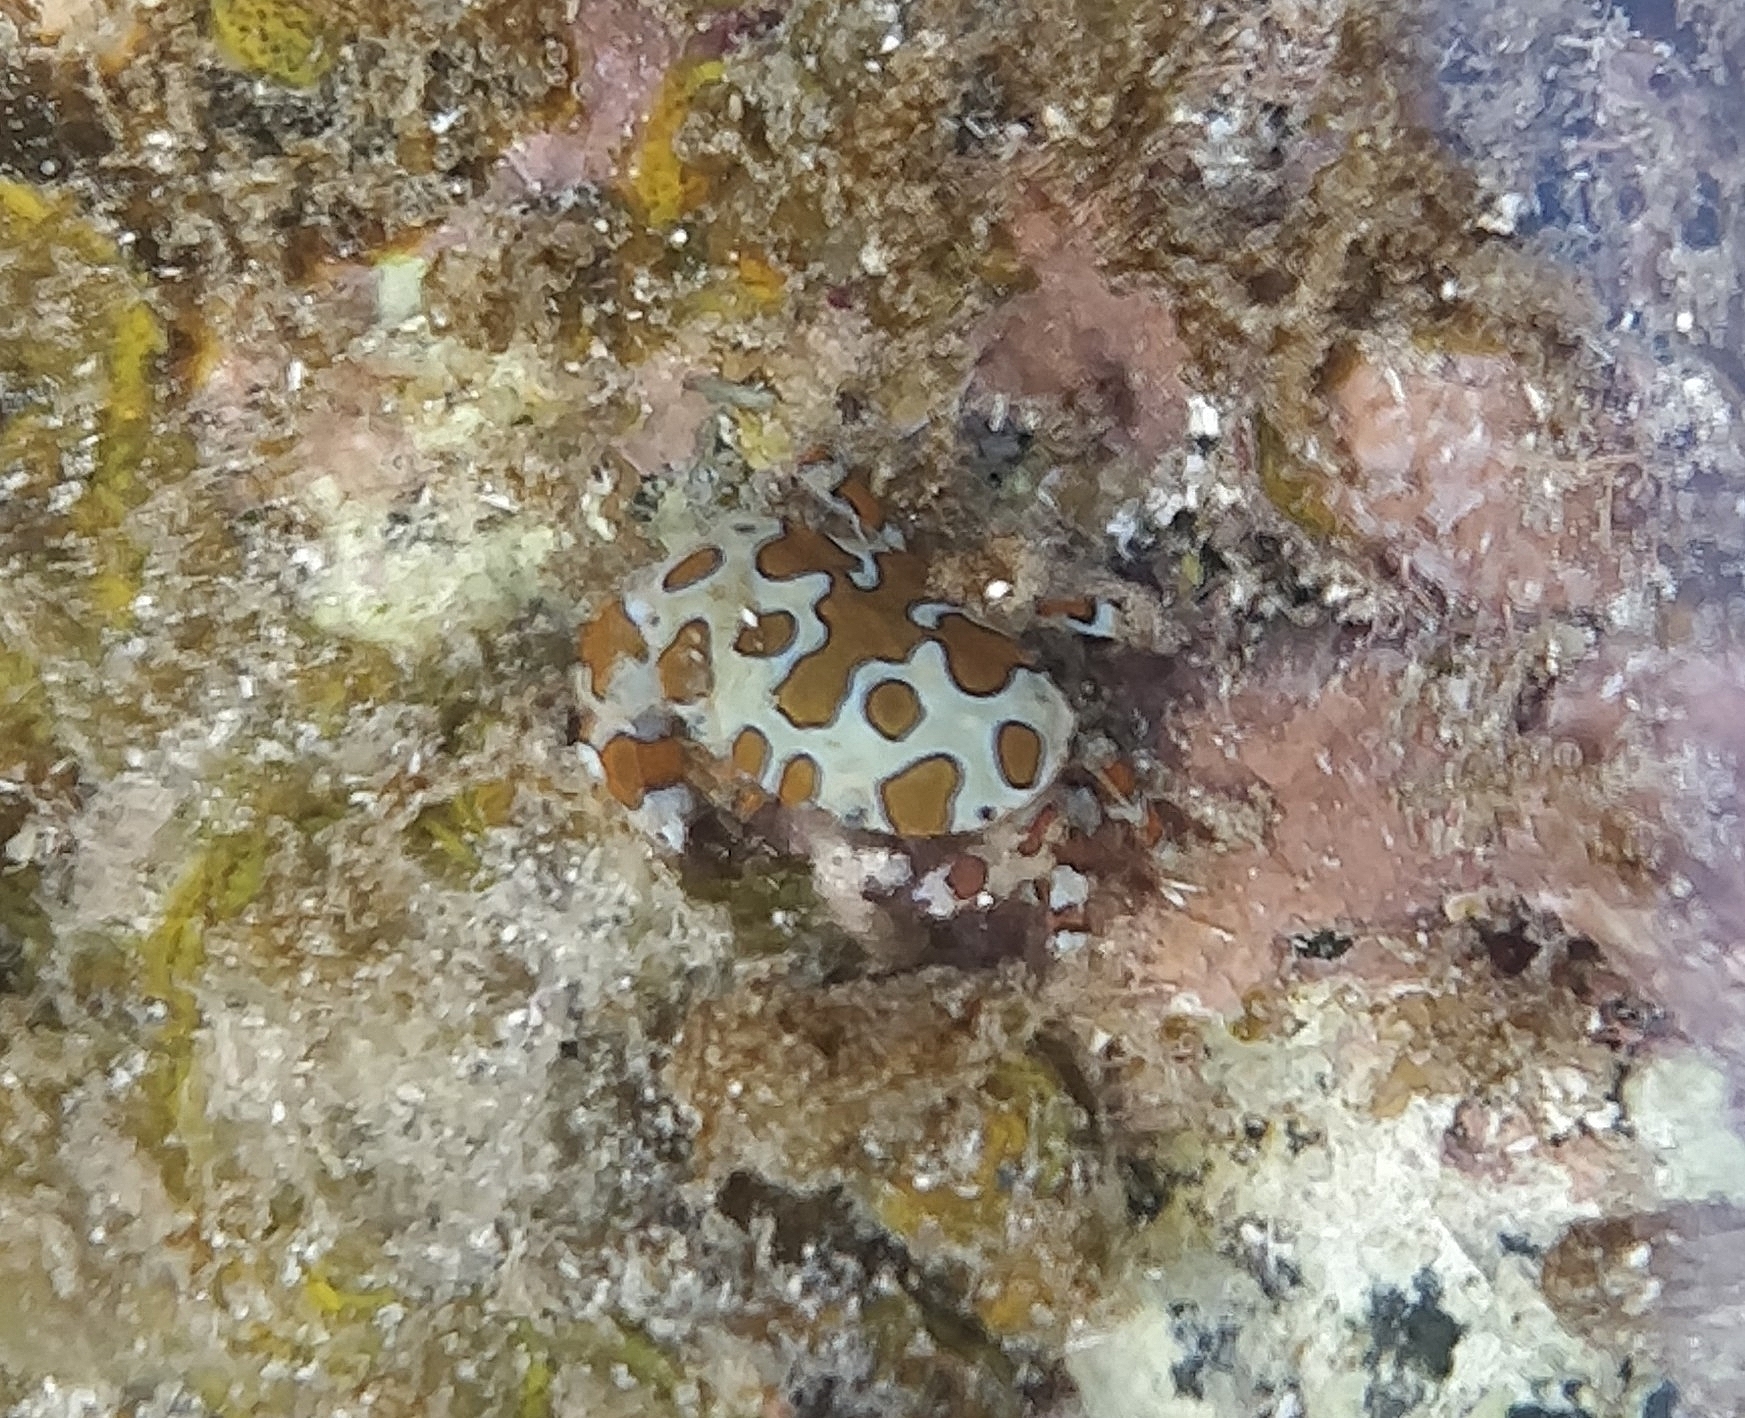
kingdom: Animalia
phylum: Arthropoda
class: Malacostraca
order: Decapoda
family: Xanthidae
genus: Platypodiella
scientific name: Platypodiella picta
